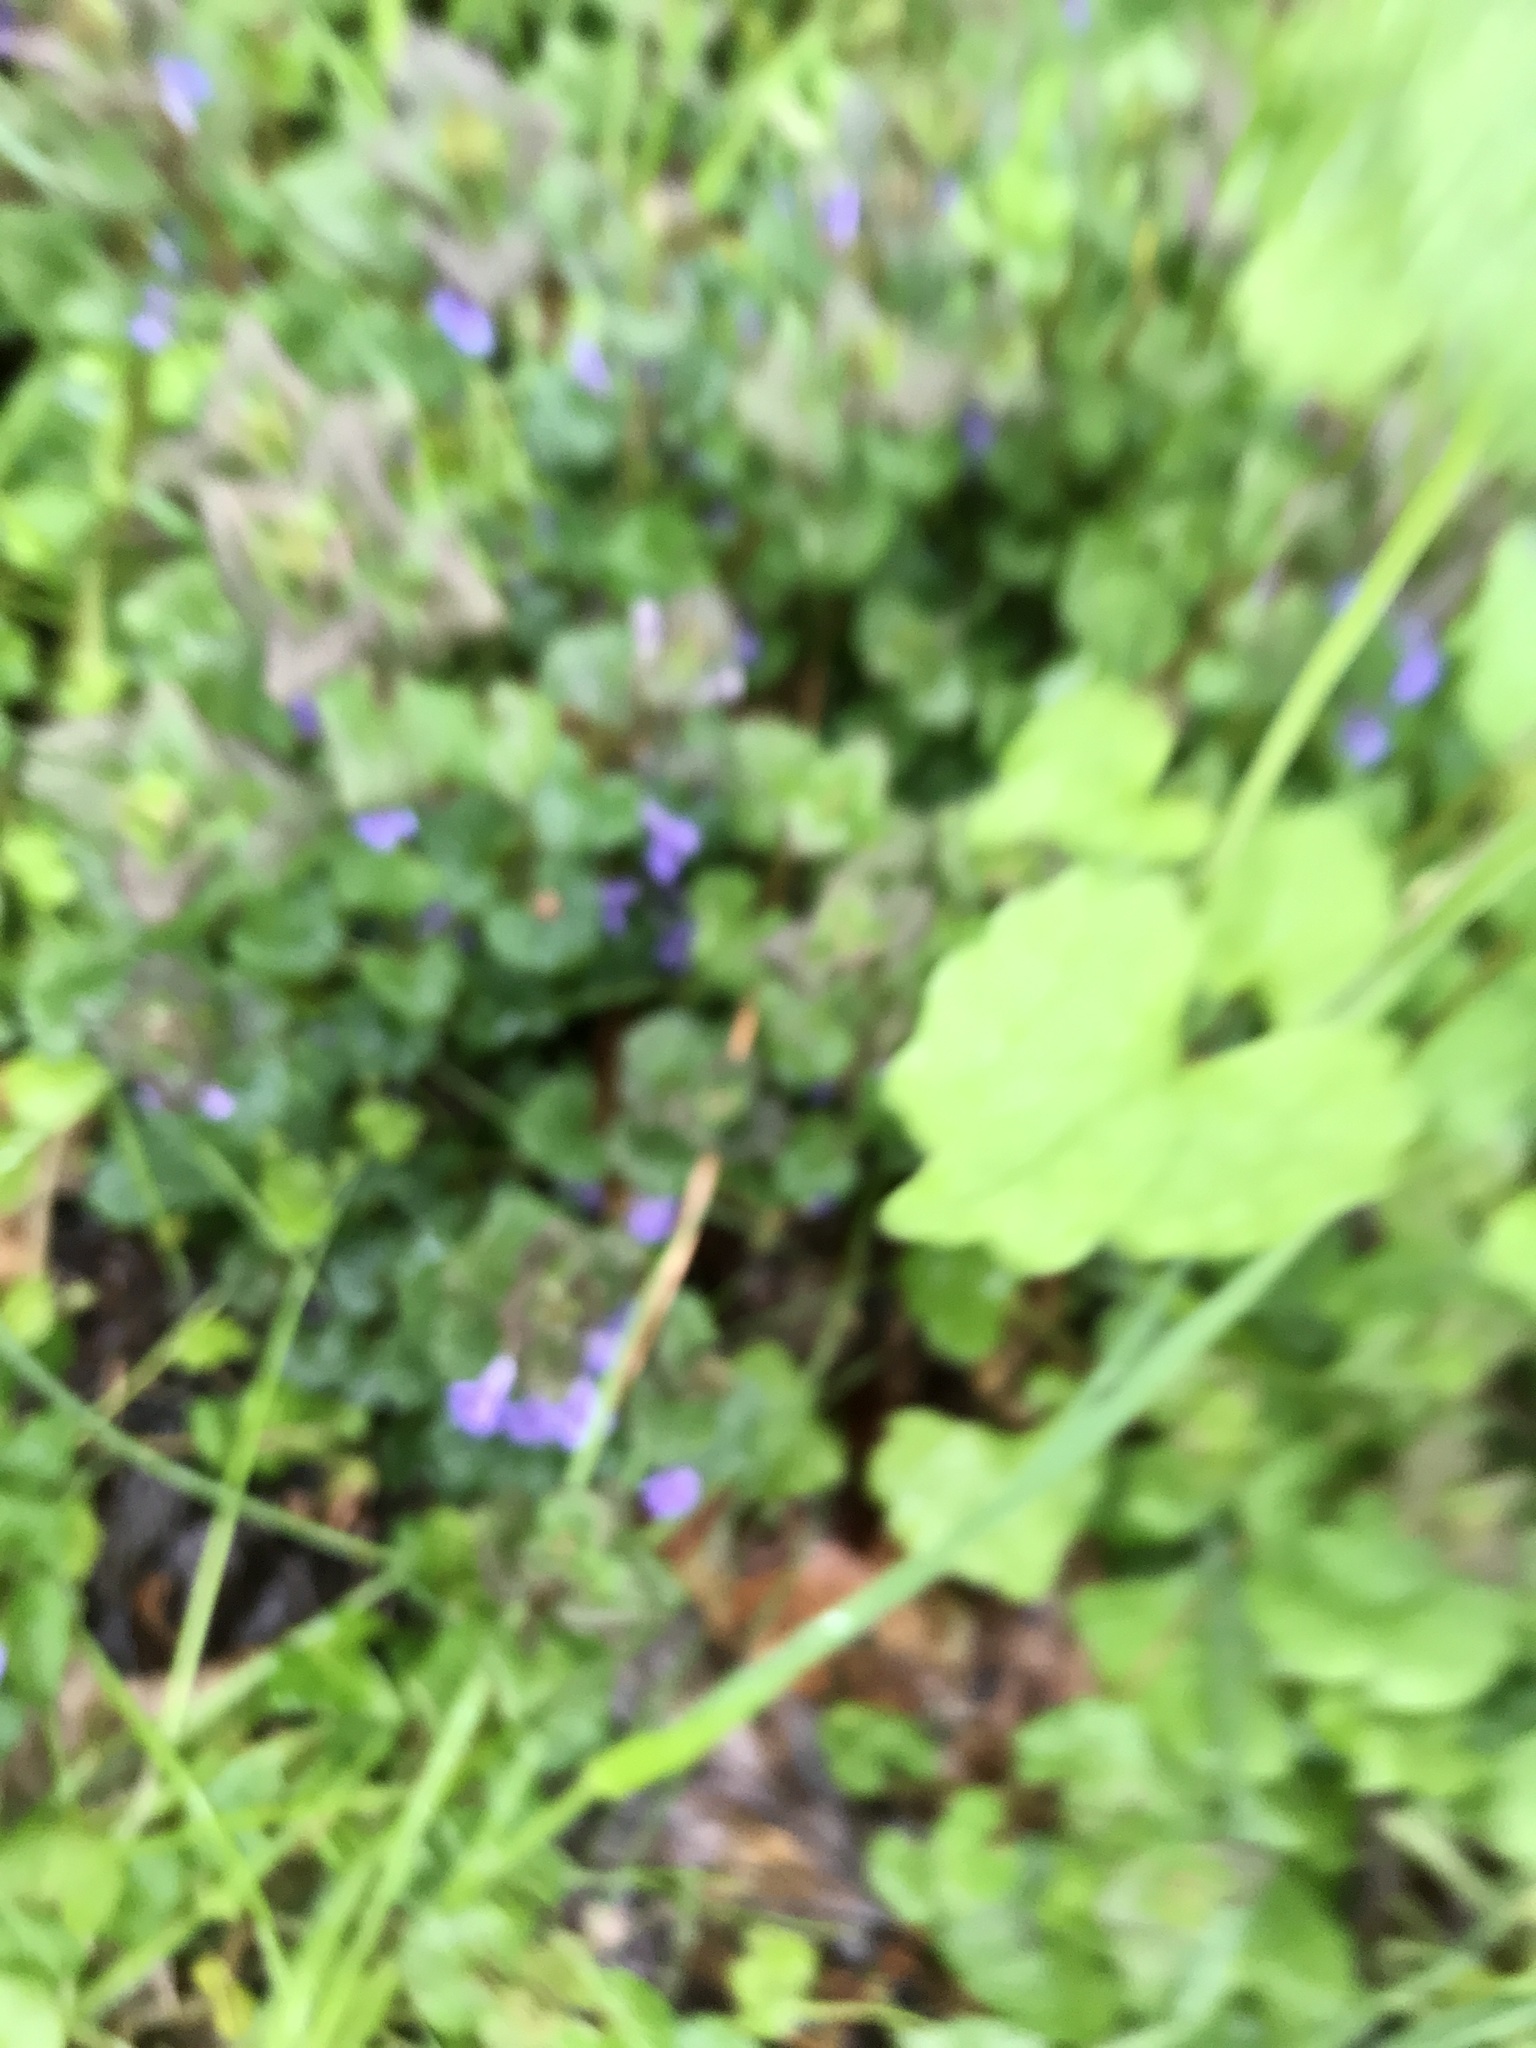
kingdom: Plantae
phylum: Tracheophyta
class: Magnoliopsida
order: Lamiales
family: Lamiaceae
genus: Glechoma
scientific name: Glechoma hederacea
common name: Ground ivy
